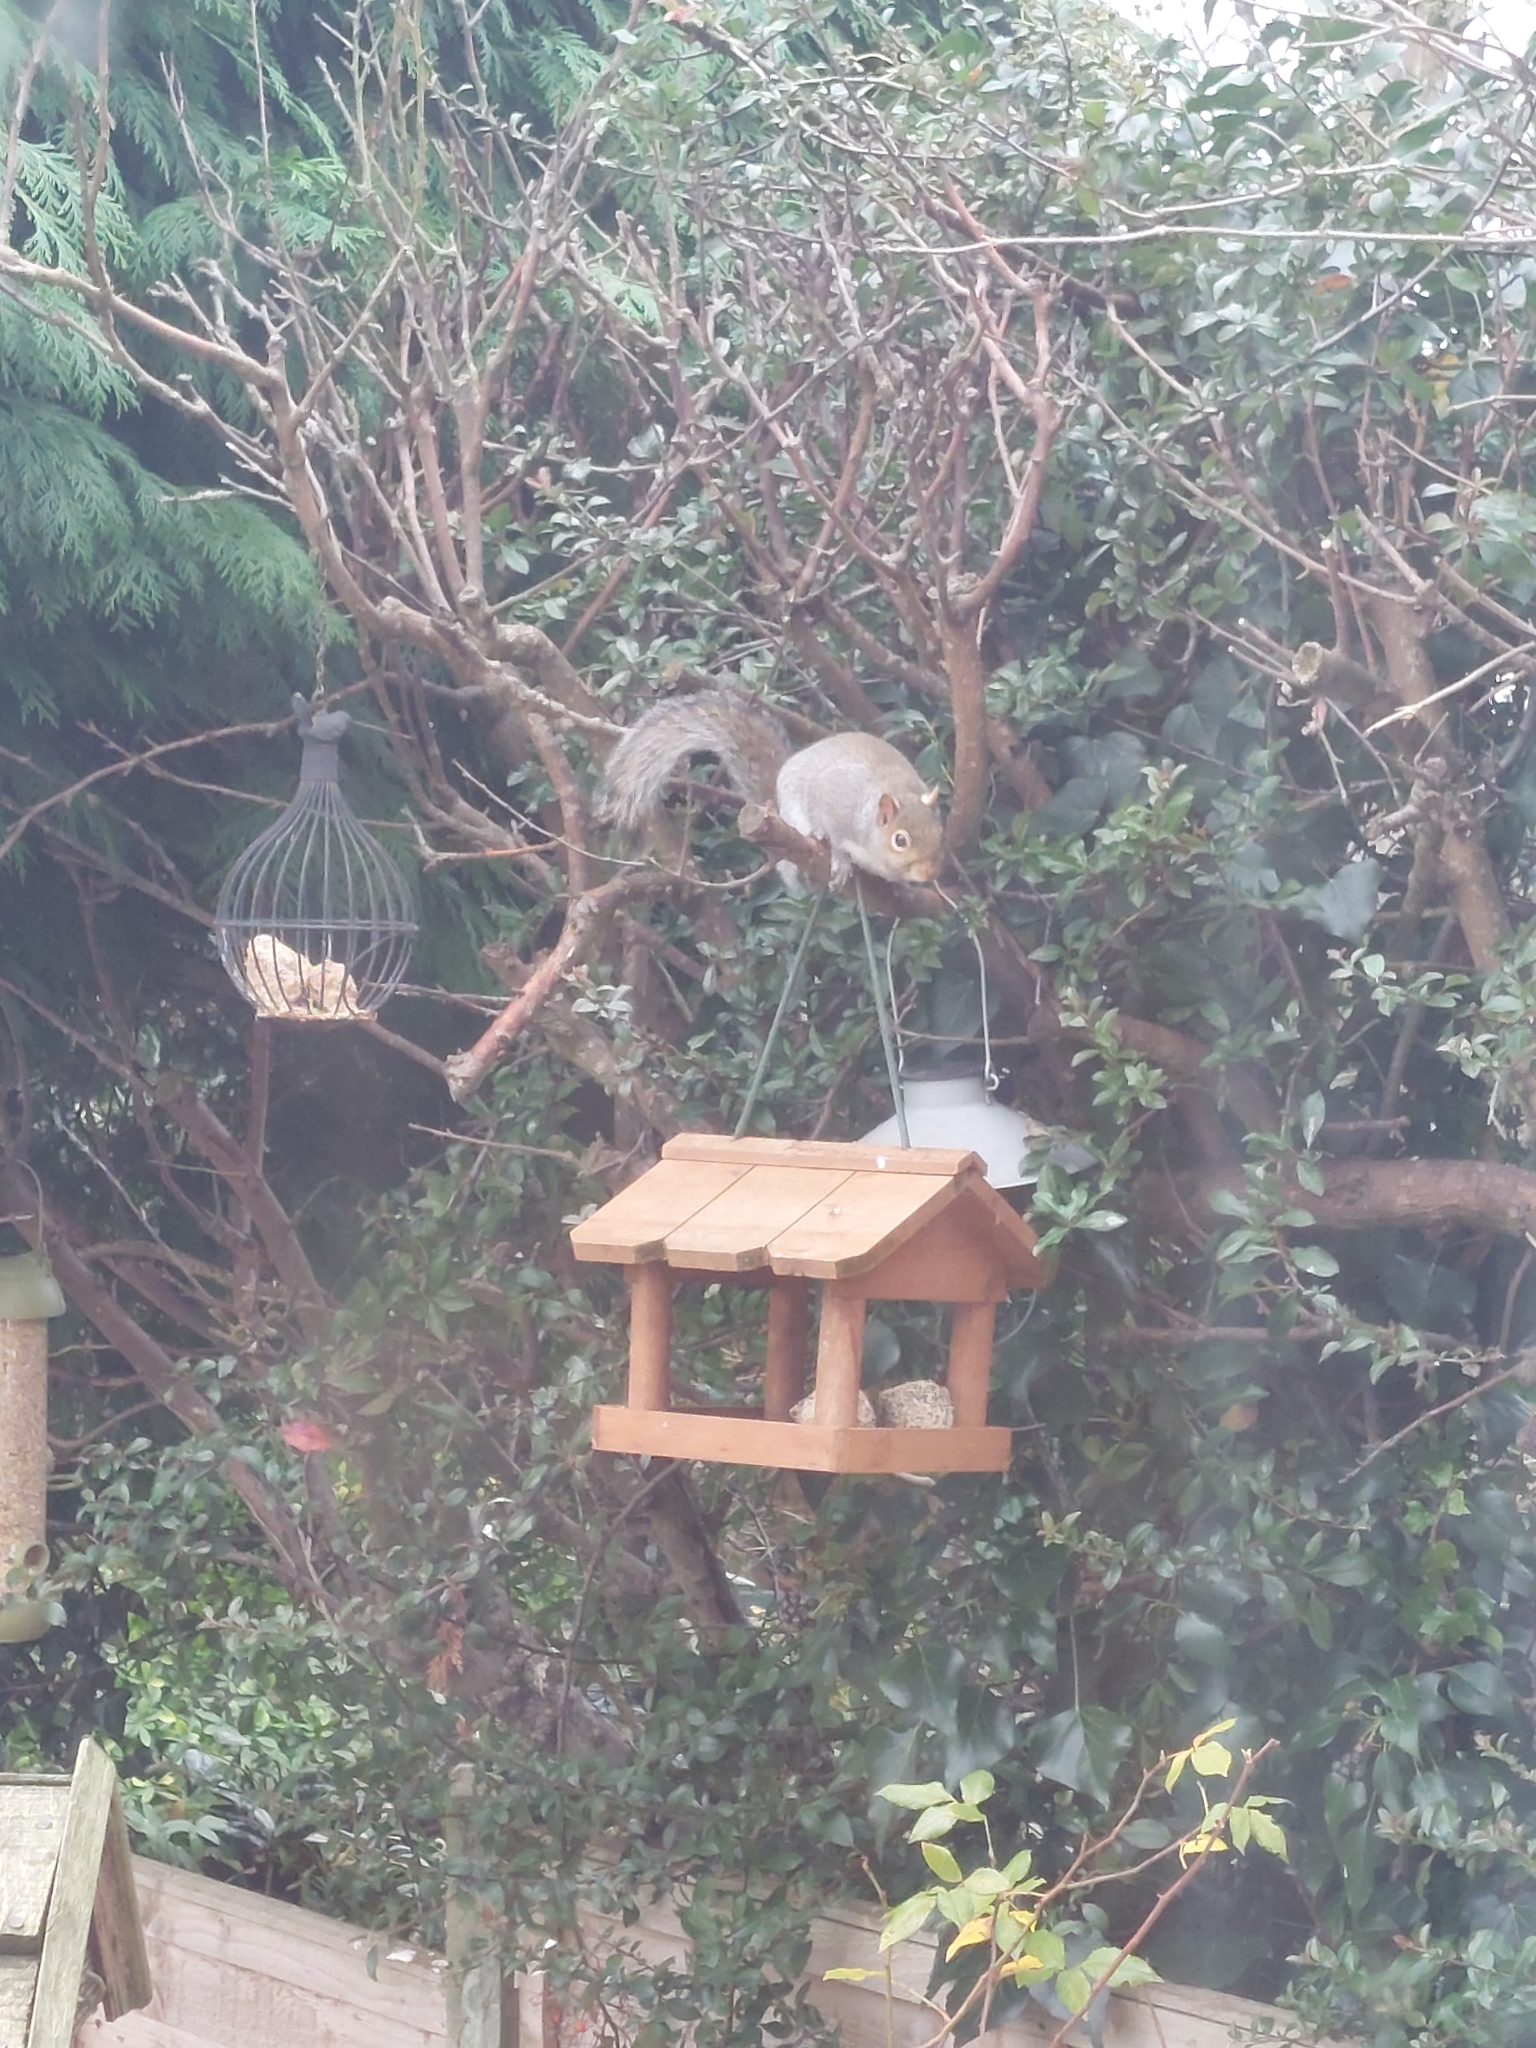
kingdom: Animalia
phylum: Chordata
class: Mammalia
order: Rodentia
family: Sciuridae
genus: Sciurus
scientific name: Sciurus carolinensis
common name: Eastern gray squirrel
